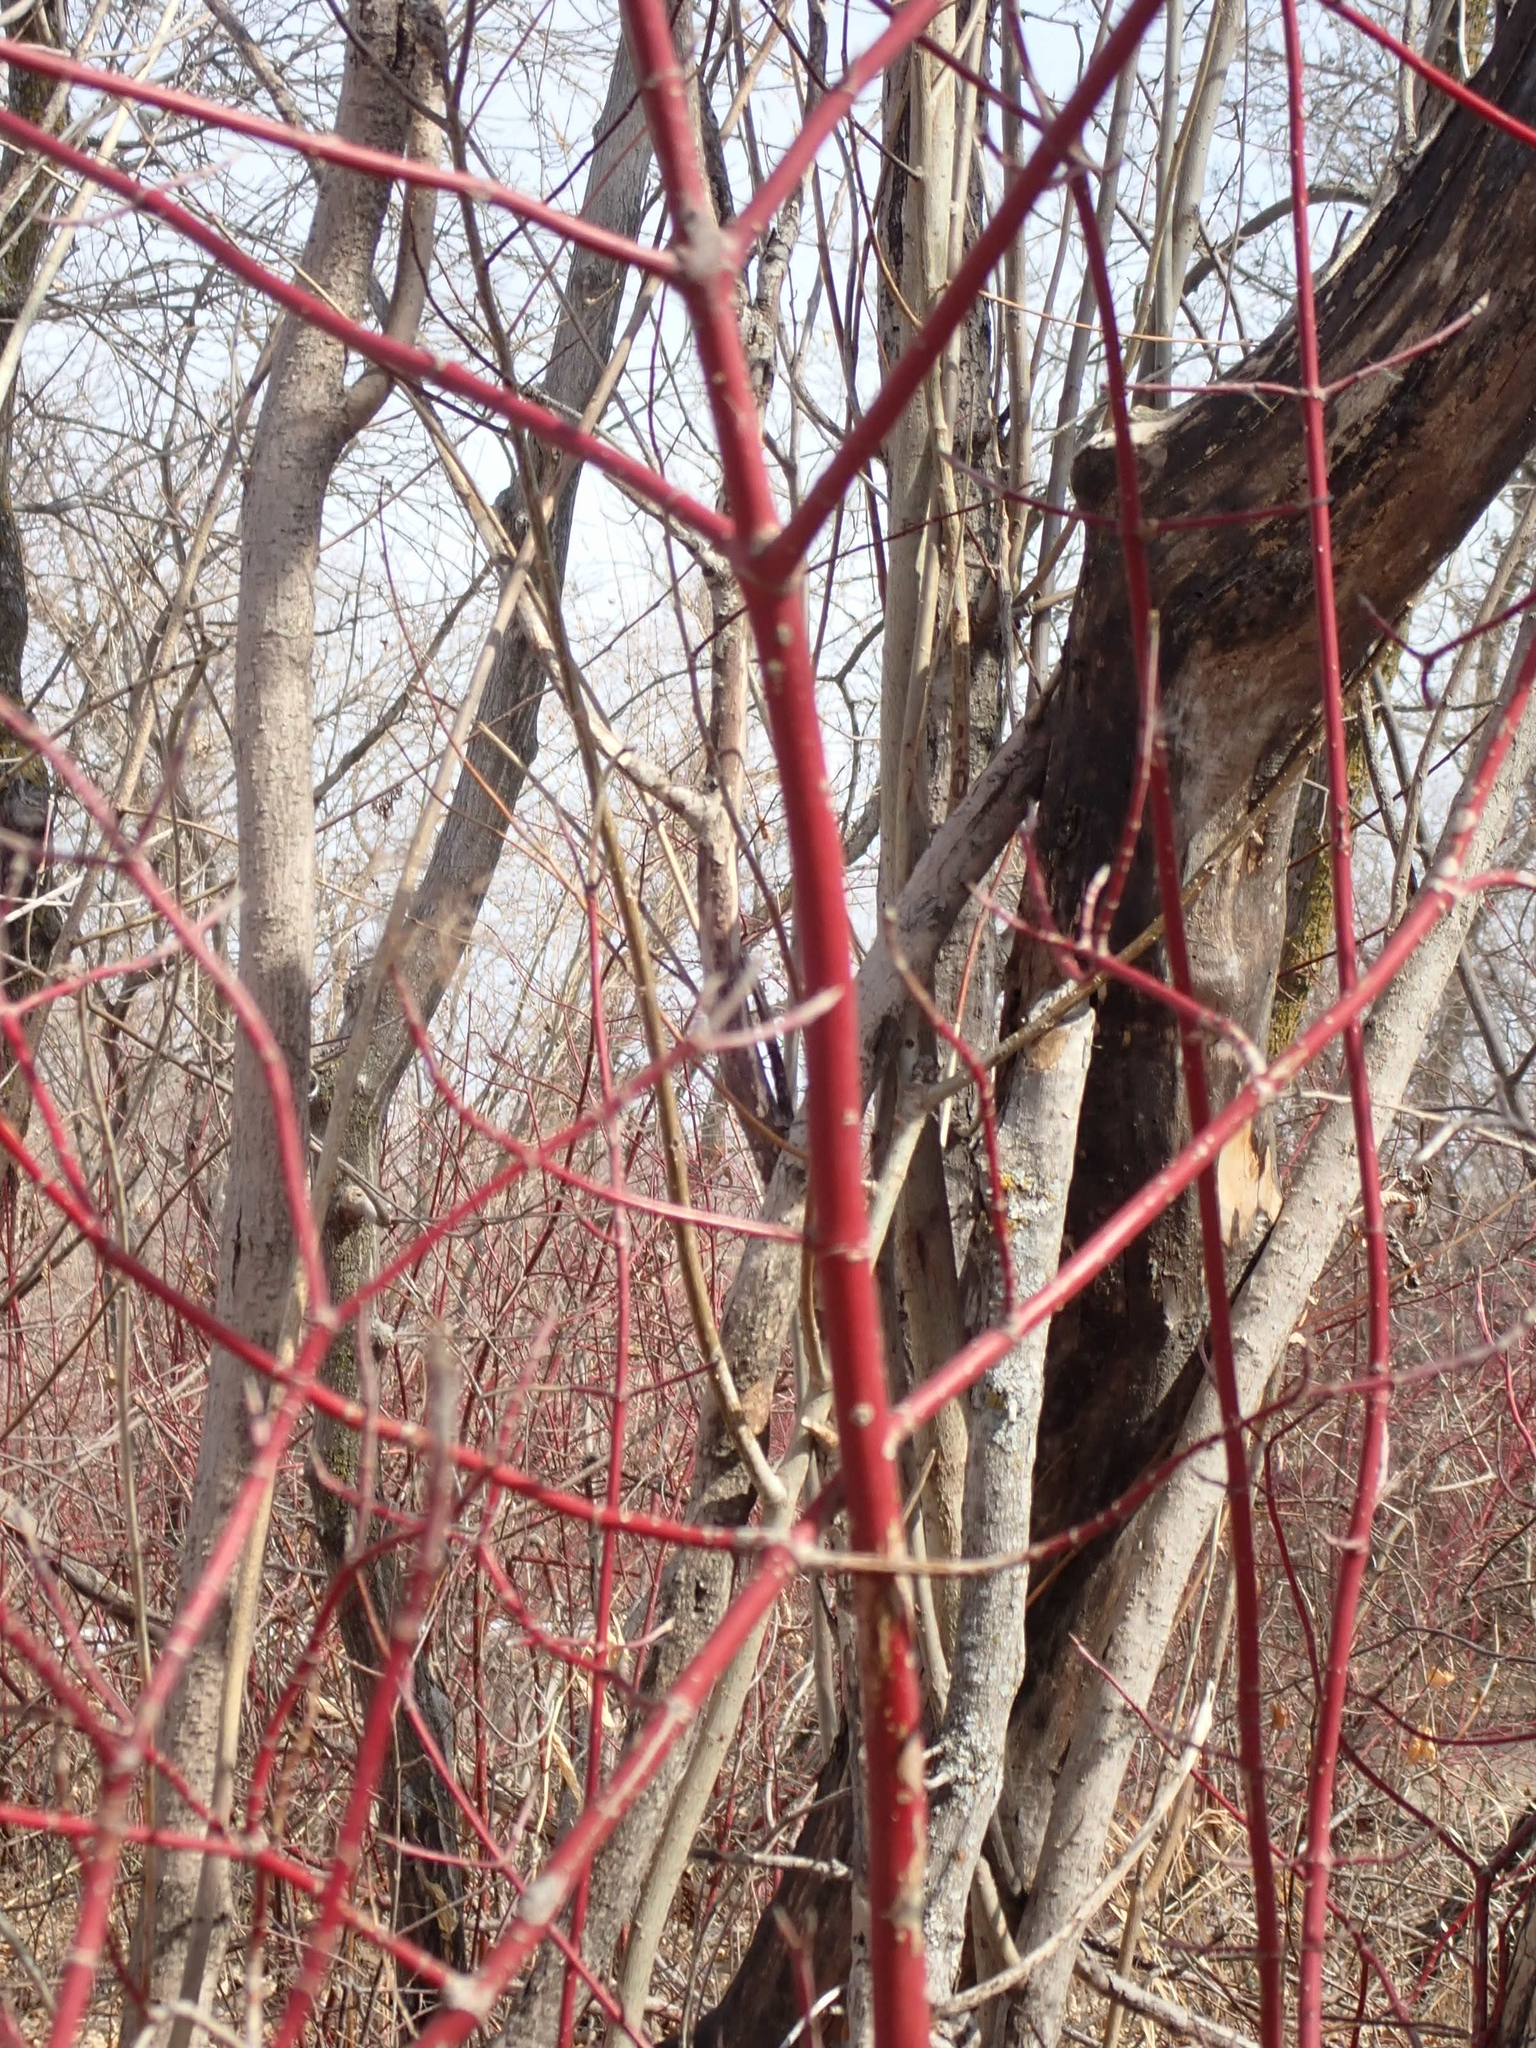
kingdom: Plantae
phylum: Tracheophyta
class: Magnoliopsida
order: Cornales
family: Cornaceae
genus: Cornus
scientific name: Cornus sericea
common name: Red-osier dogwood
